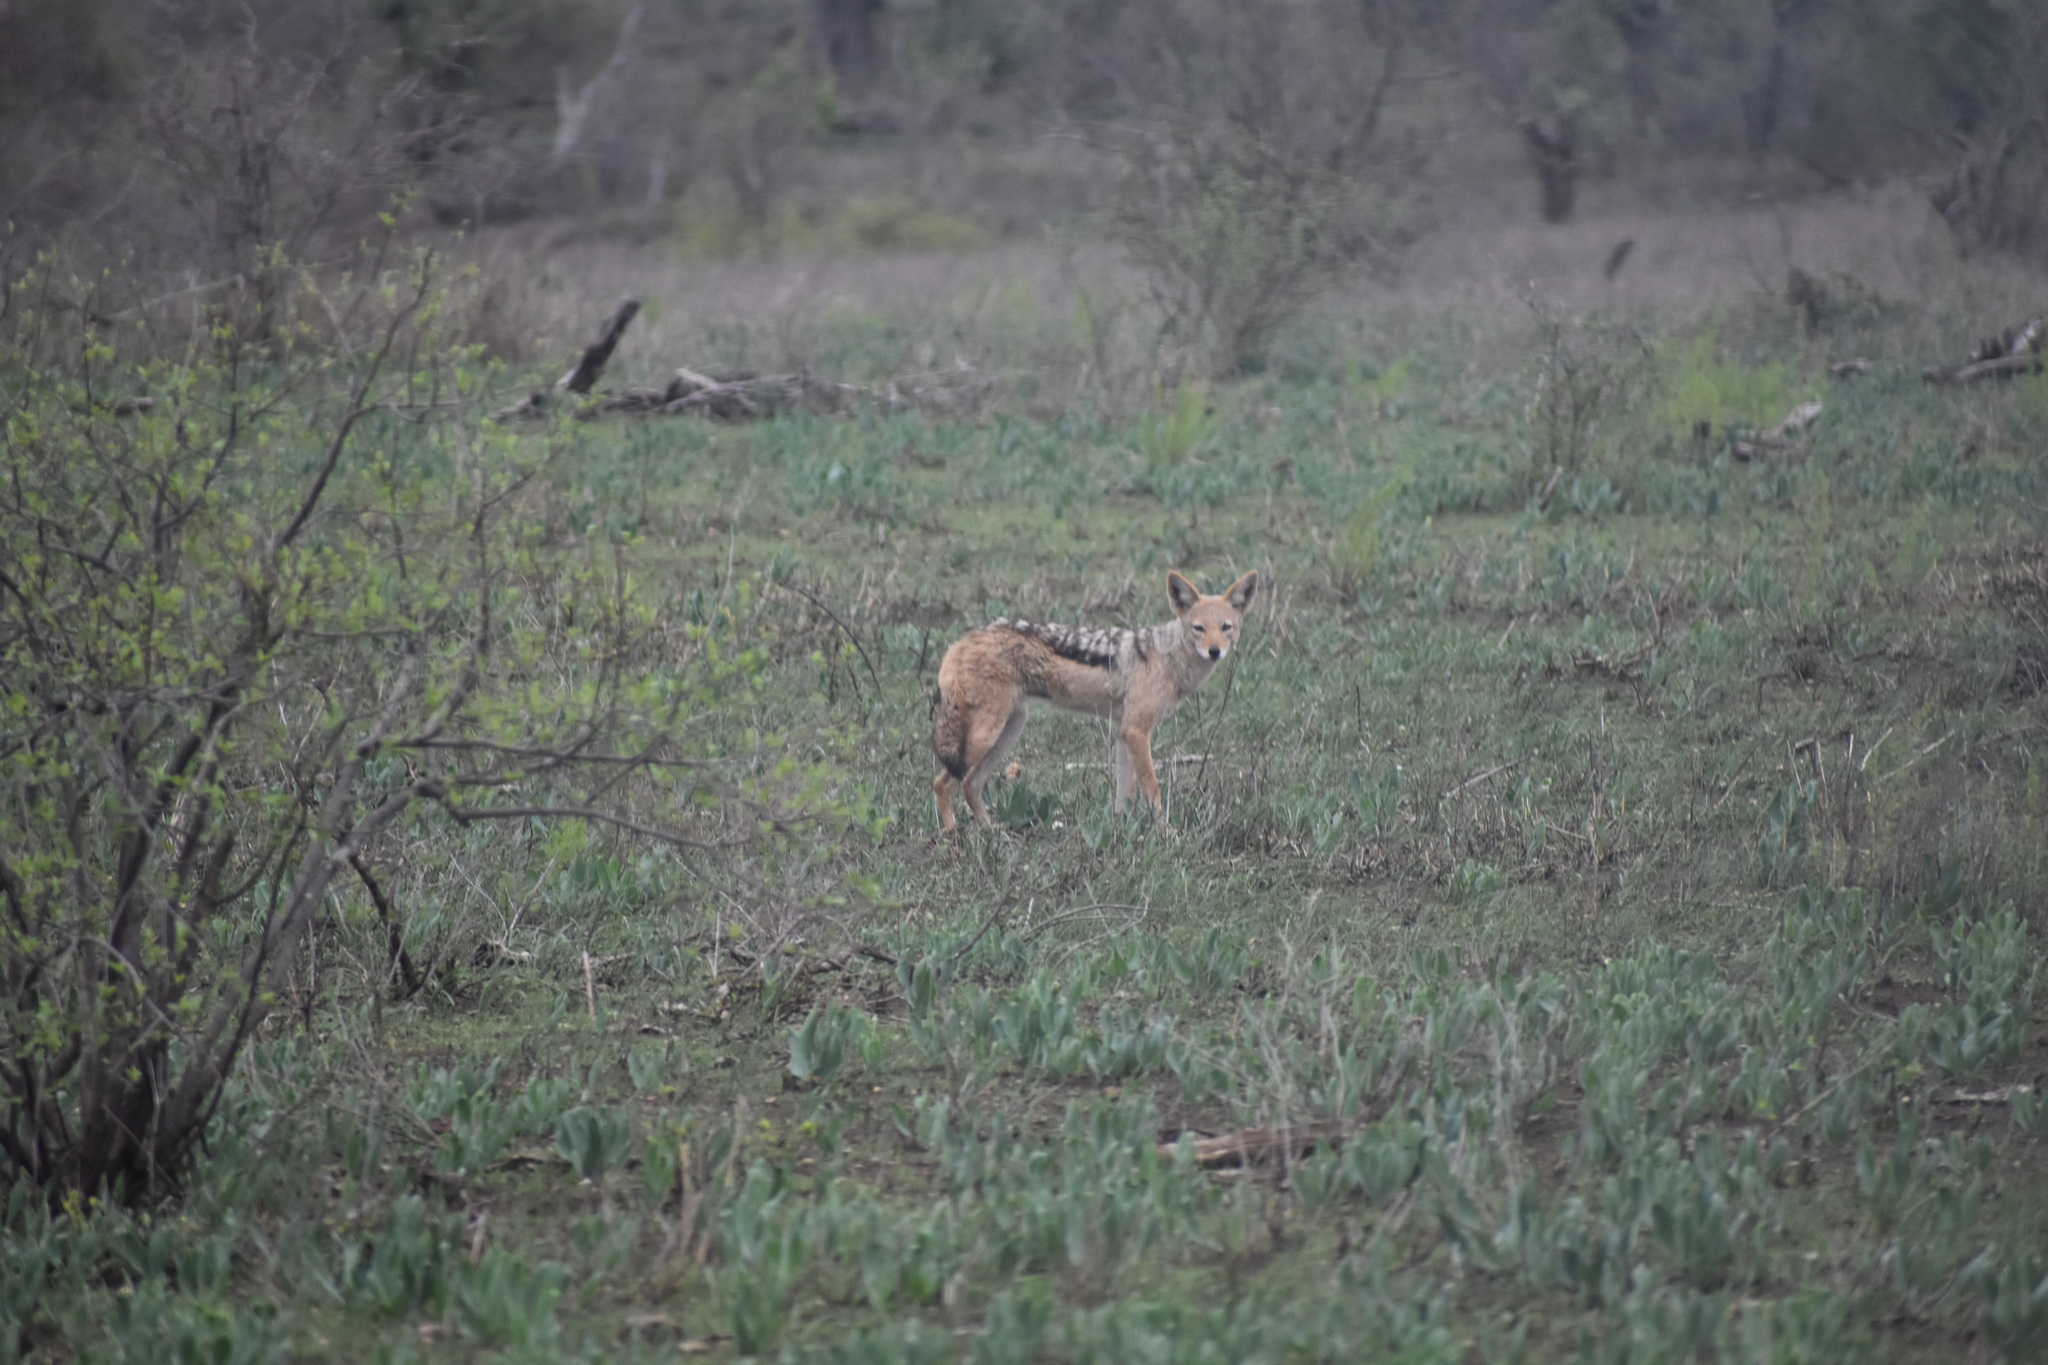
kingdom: Animalia
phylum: Chordata
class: Mammalia
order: Carnivora
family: Canidae
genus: Lupulella
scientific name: Lupulella
